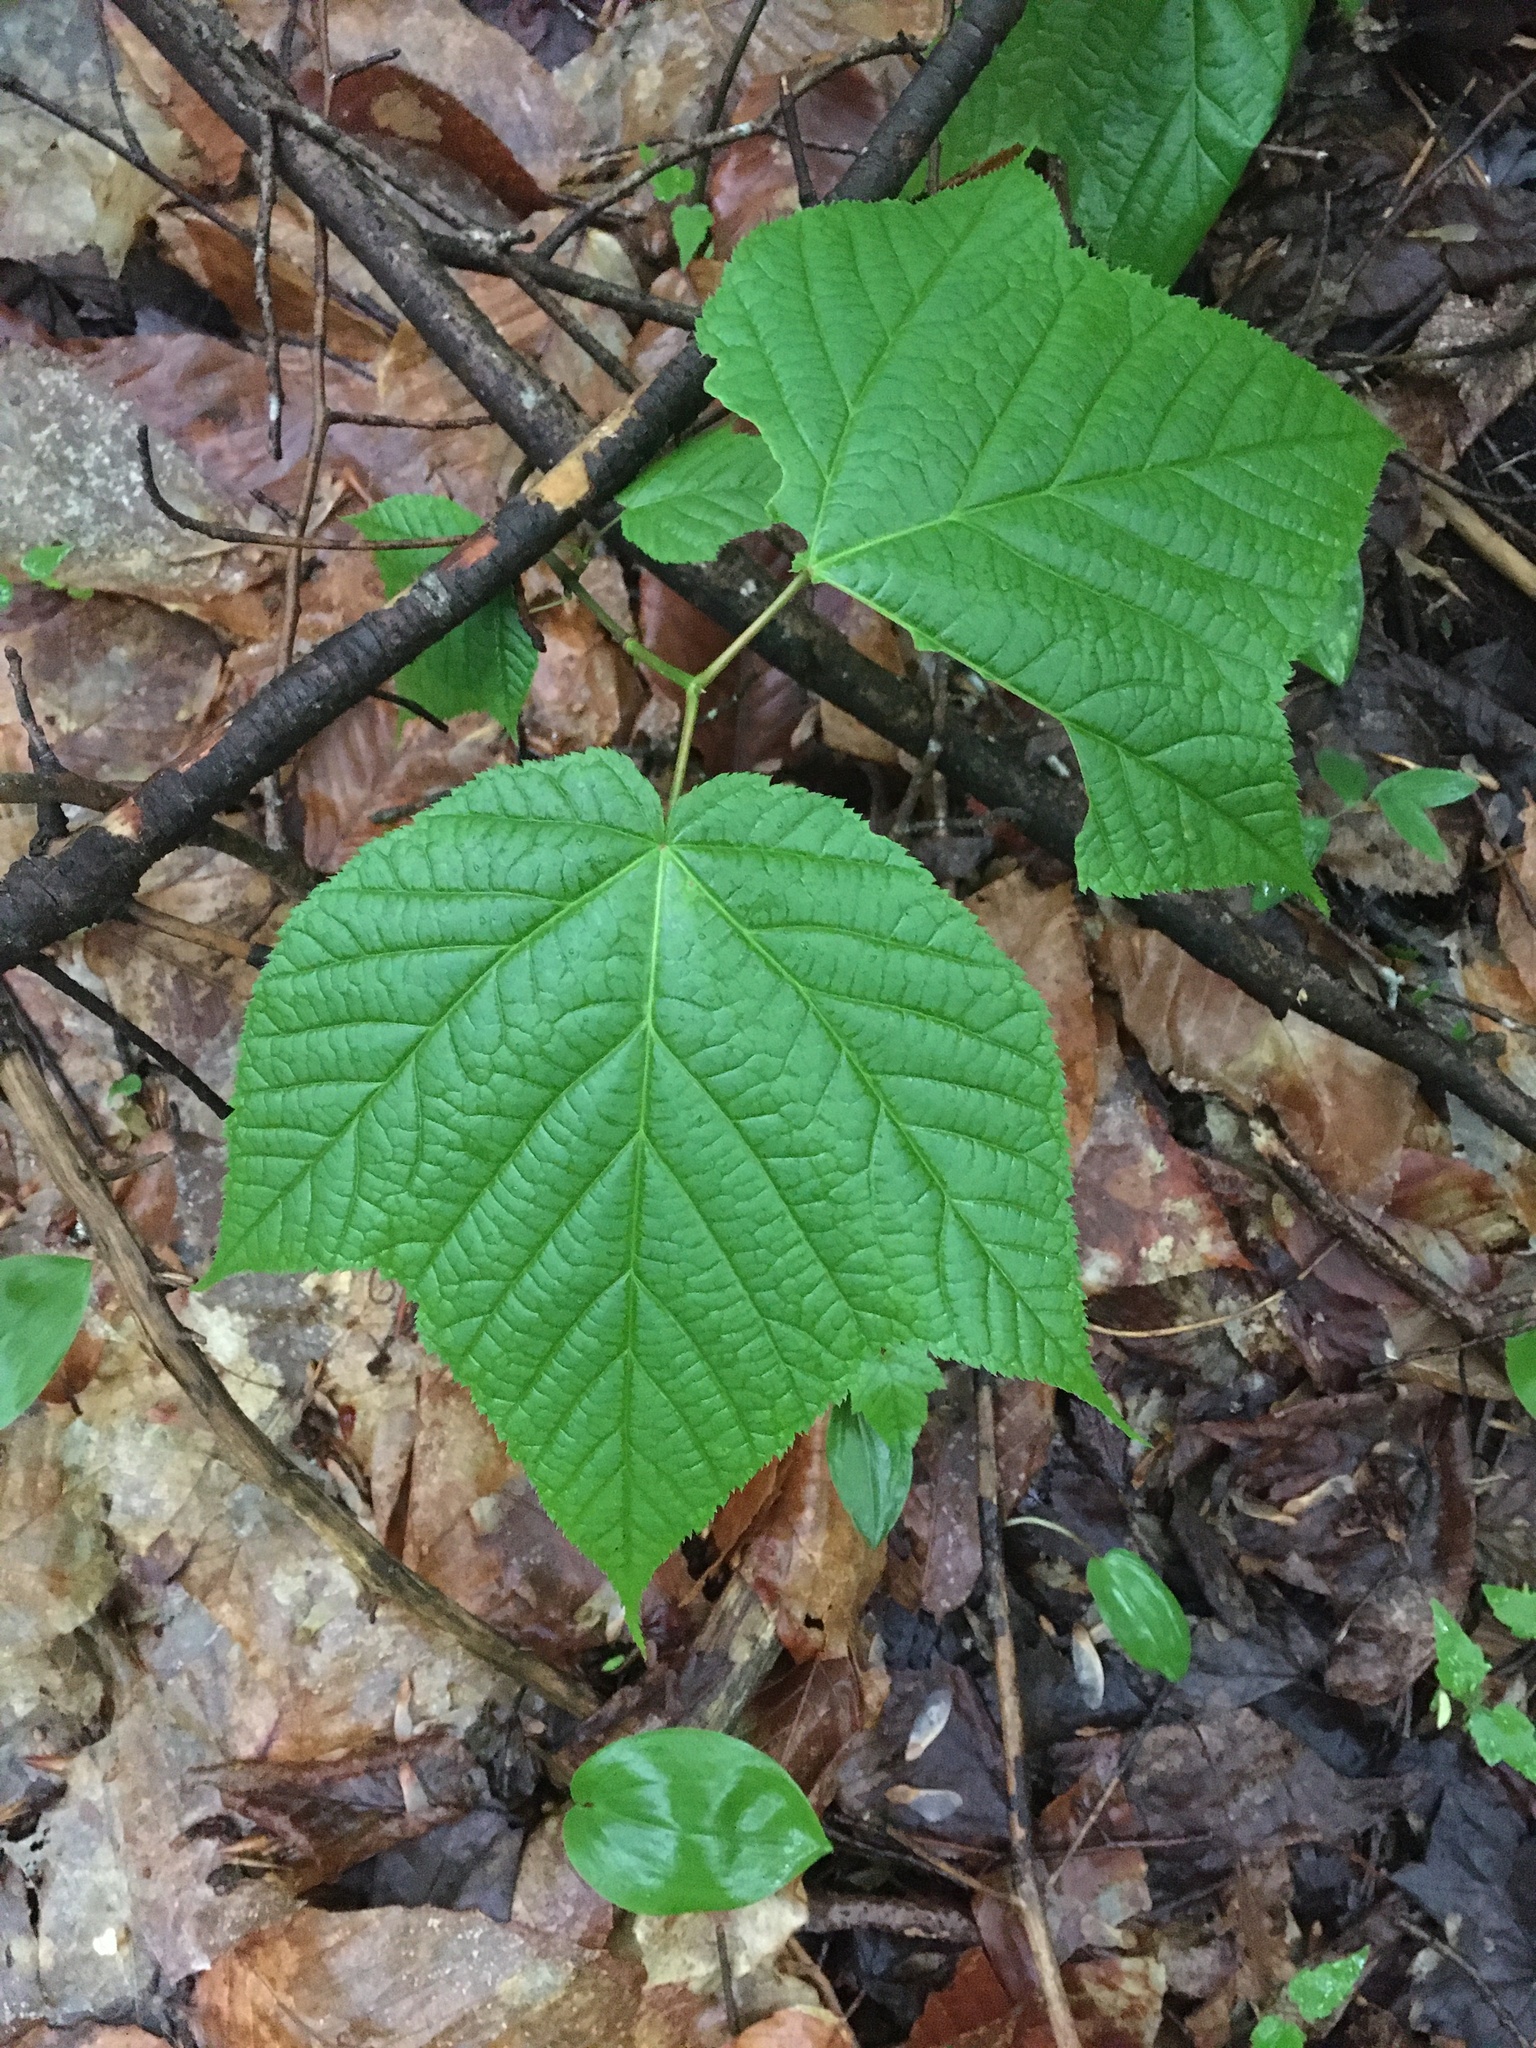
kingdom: Plantae
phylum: Tracheophyta
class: Magnoliopsida
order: Sapindales
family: Sapindaceae
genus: Acer
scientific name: Acer pensylvanicum
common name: Moosewood
